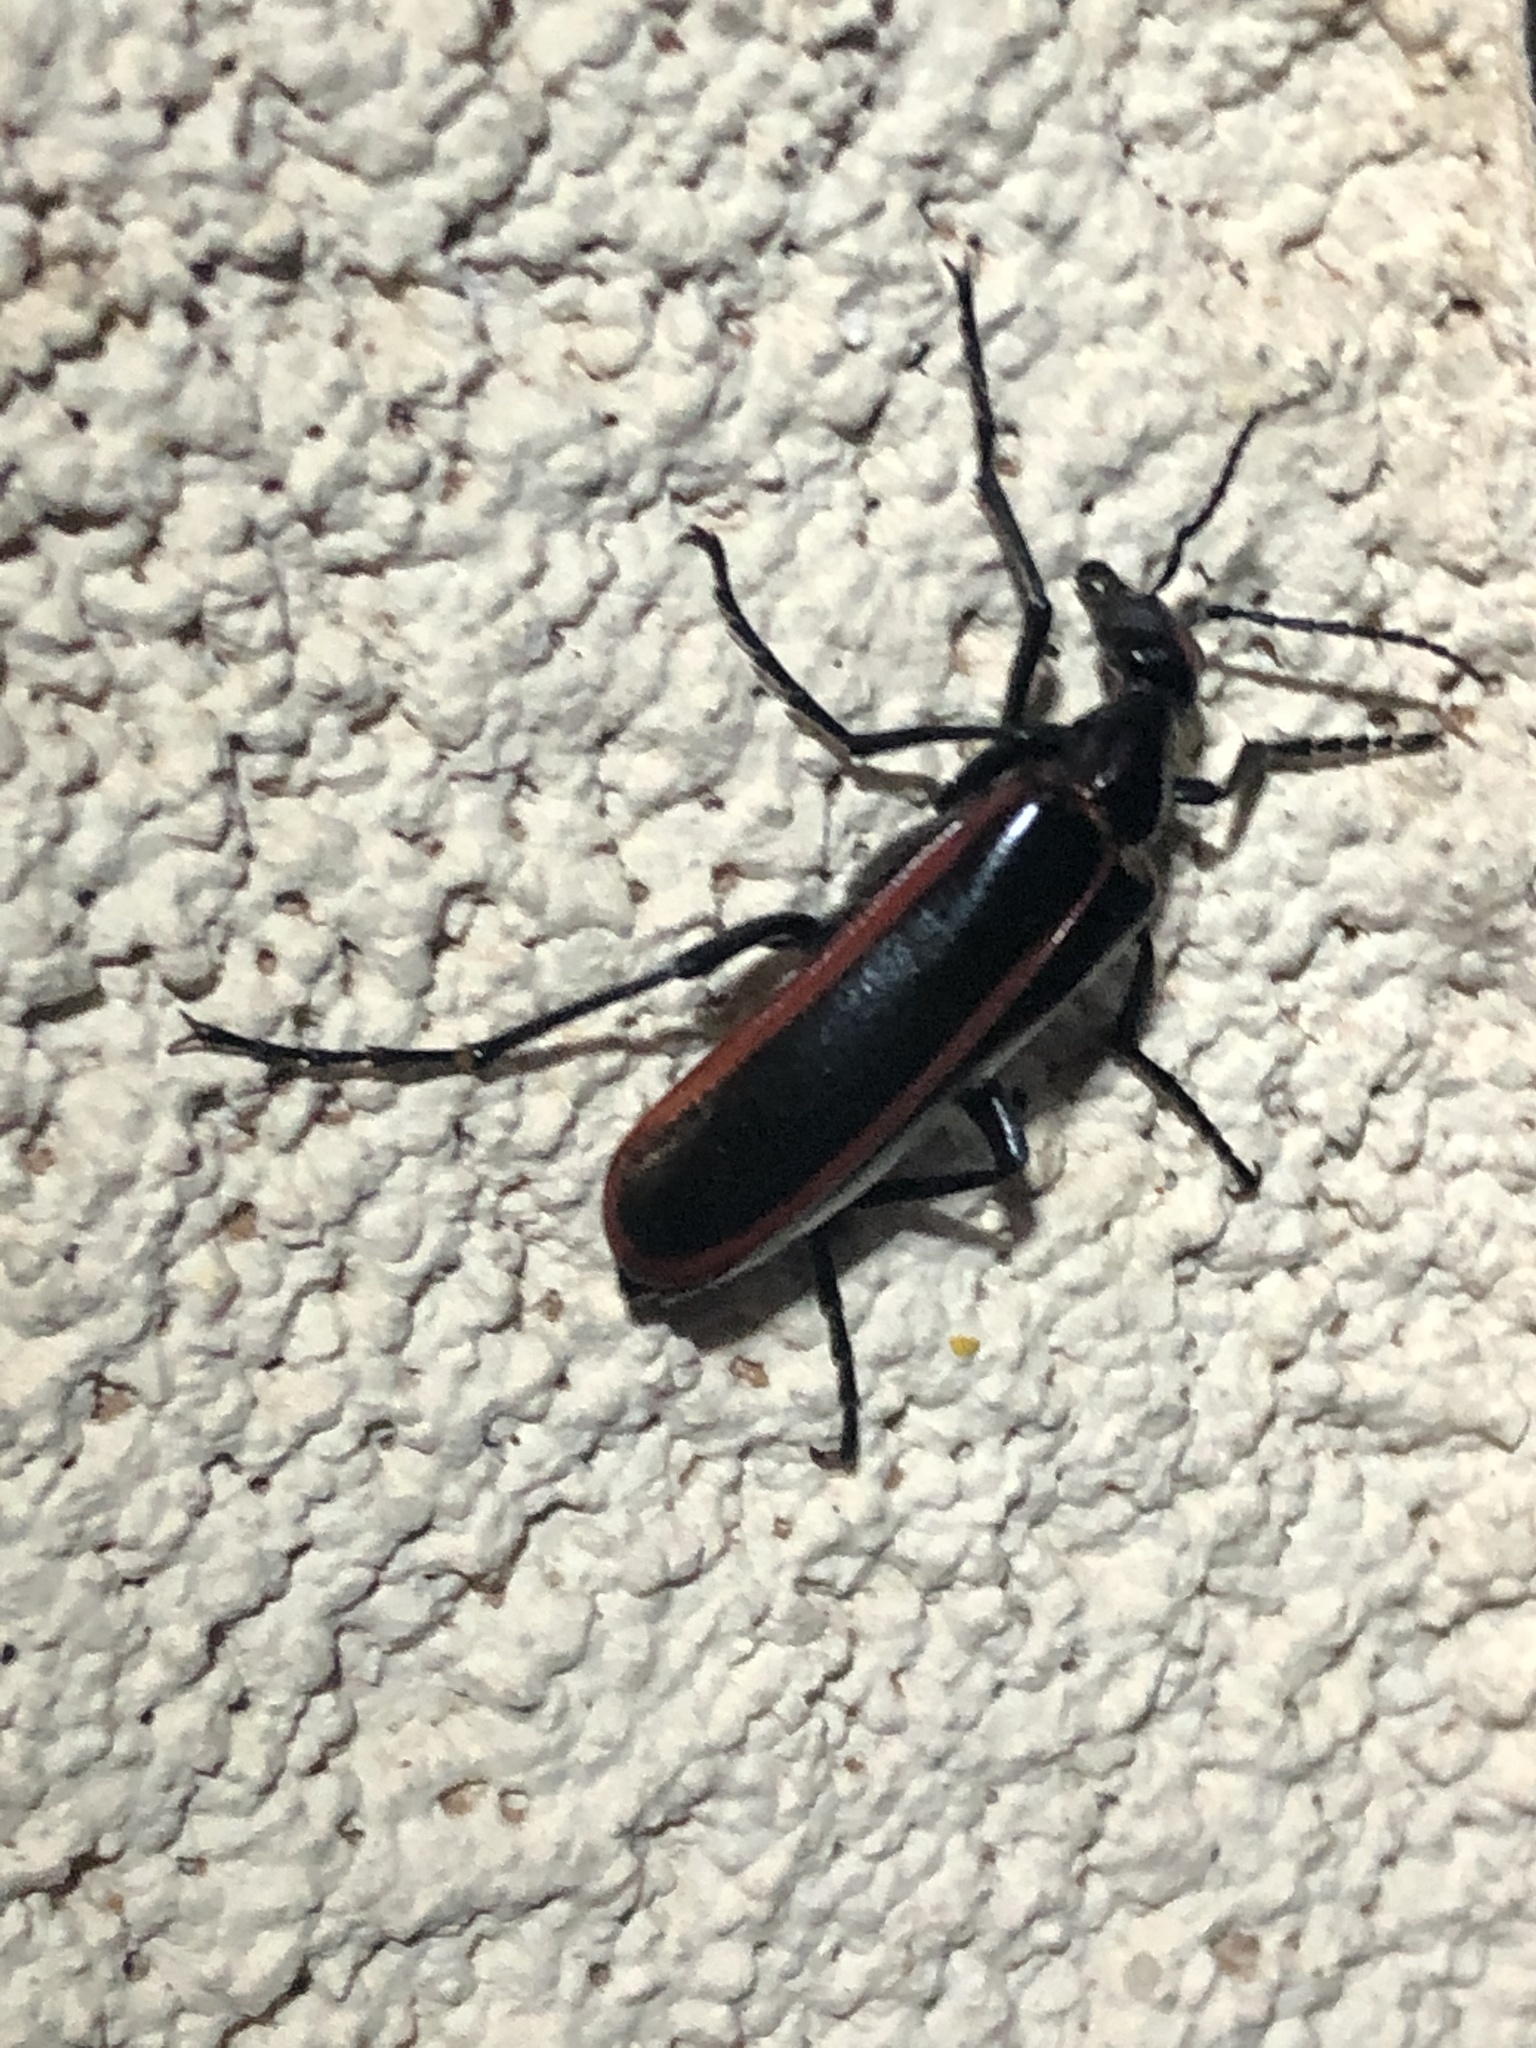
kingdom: Animalia
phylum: Arthropoda
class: Insecta
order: Coleoptera
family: Meloidae
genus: Pyrota
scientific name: Pyrota akhurstiana
